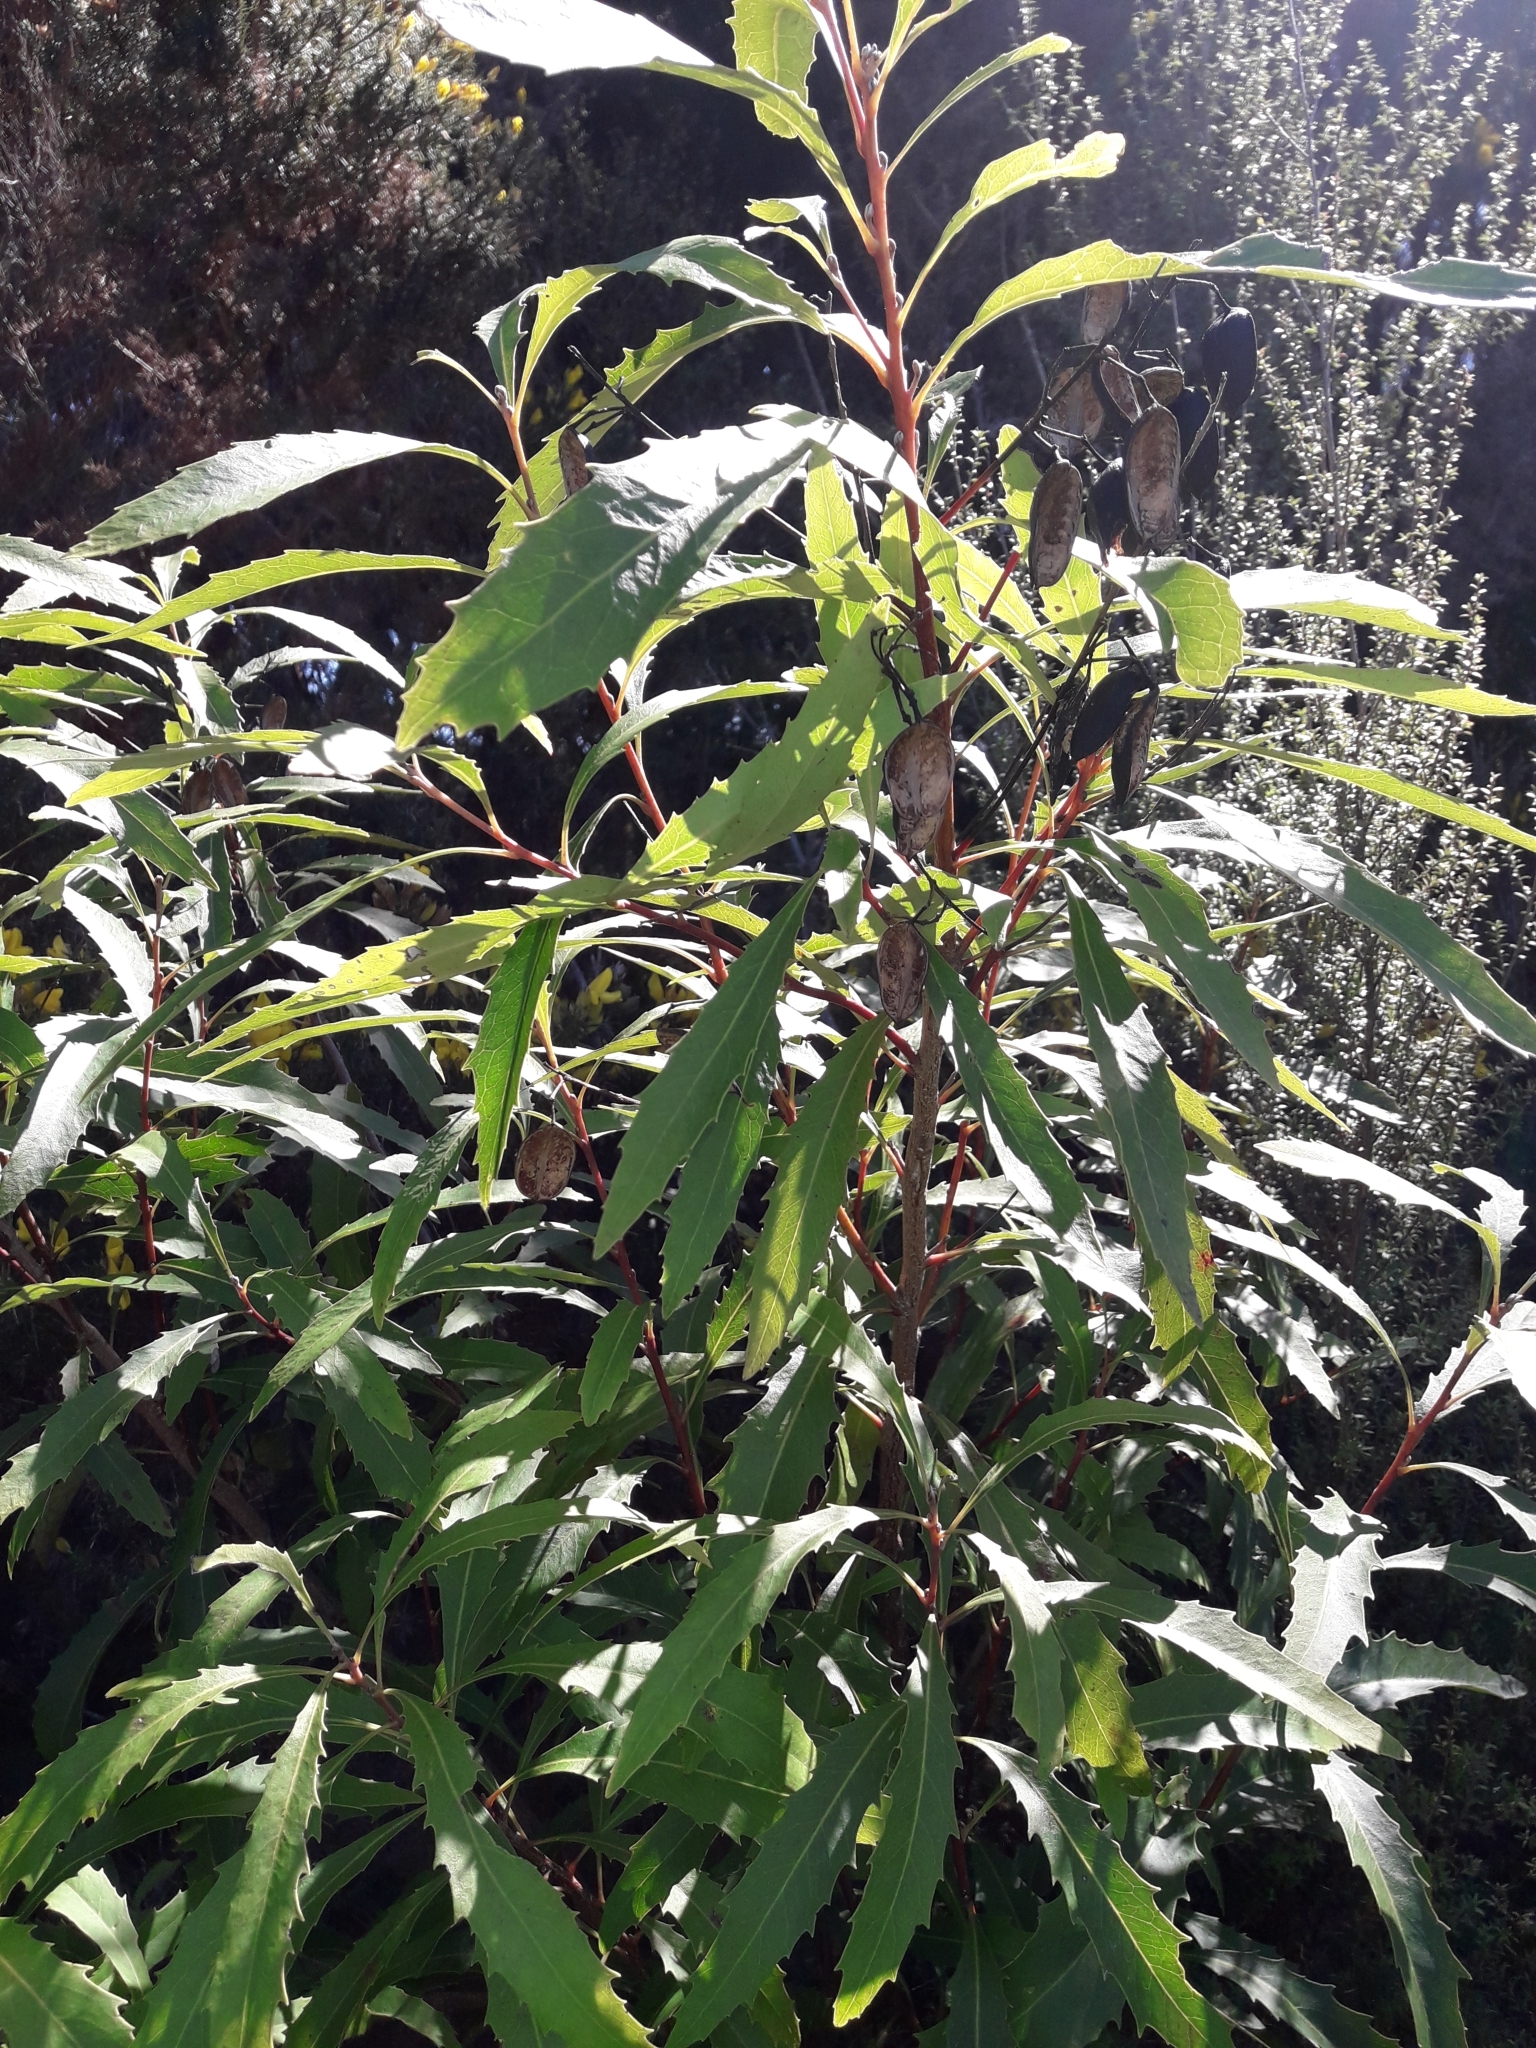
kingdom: Plantae
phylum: Tracheophyta
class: Magnoliopsida
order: Proteales
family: Proteaceae
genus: Lomatia
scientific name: Lomatia fraseri
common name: Forest lomatia
